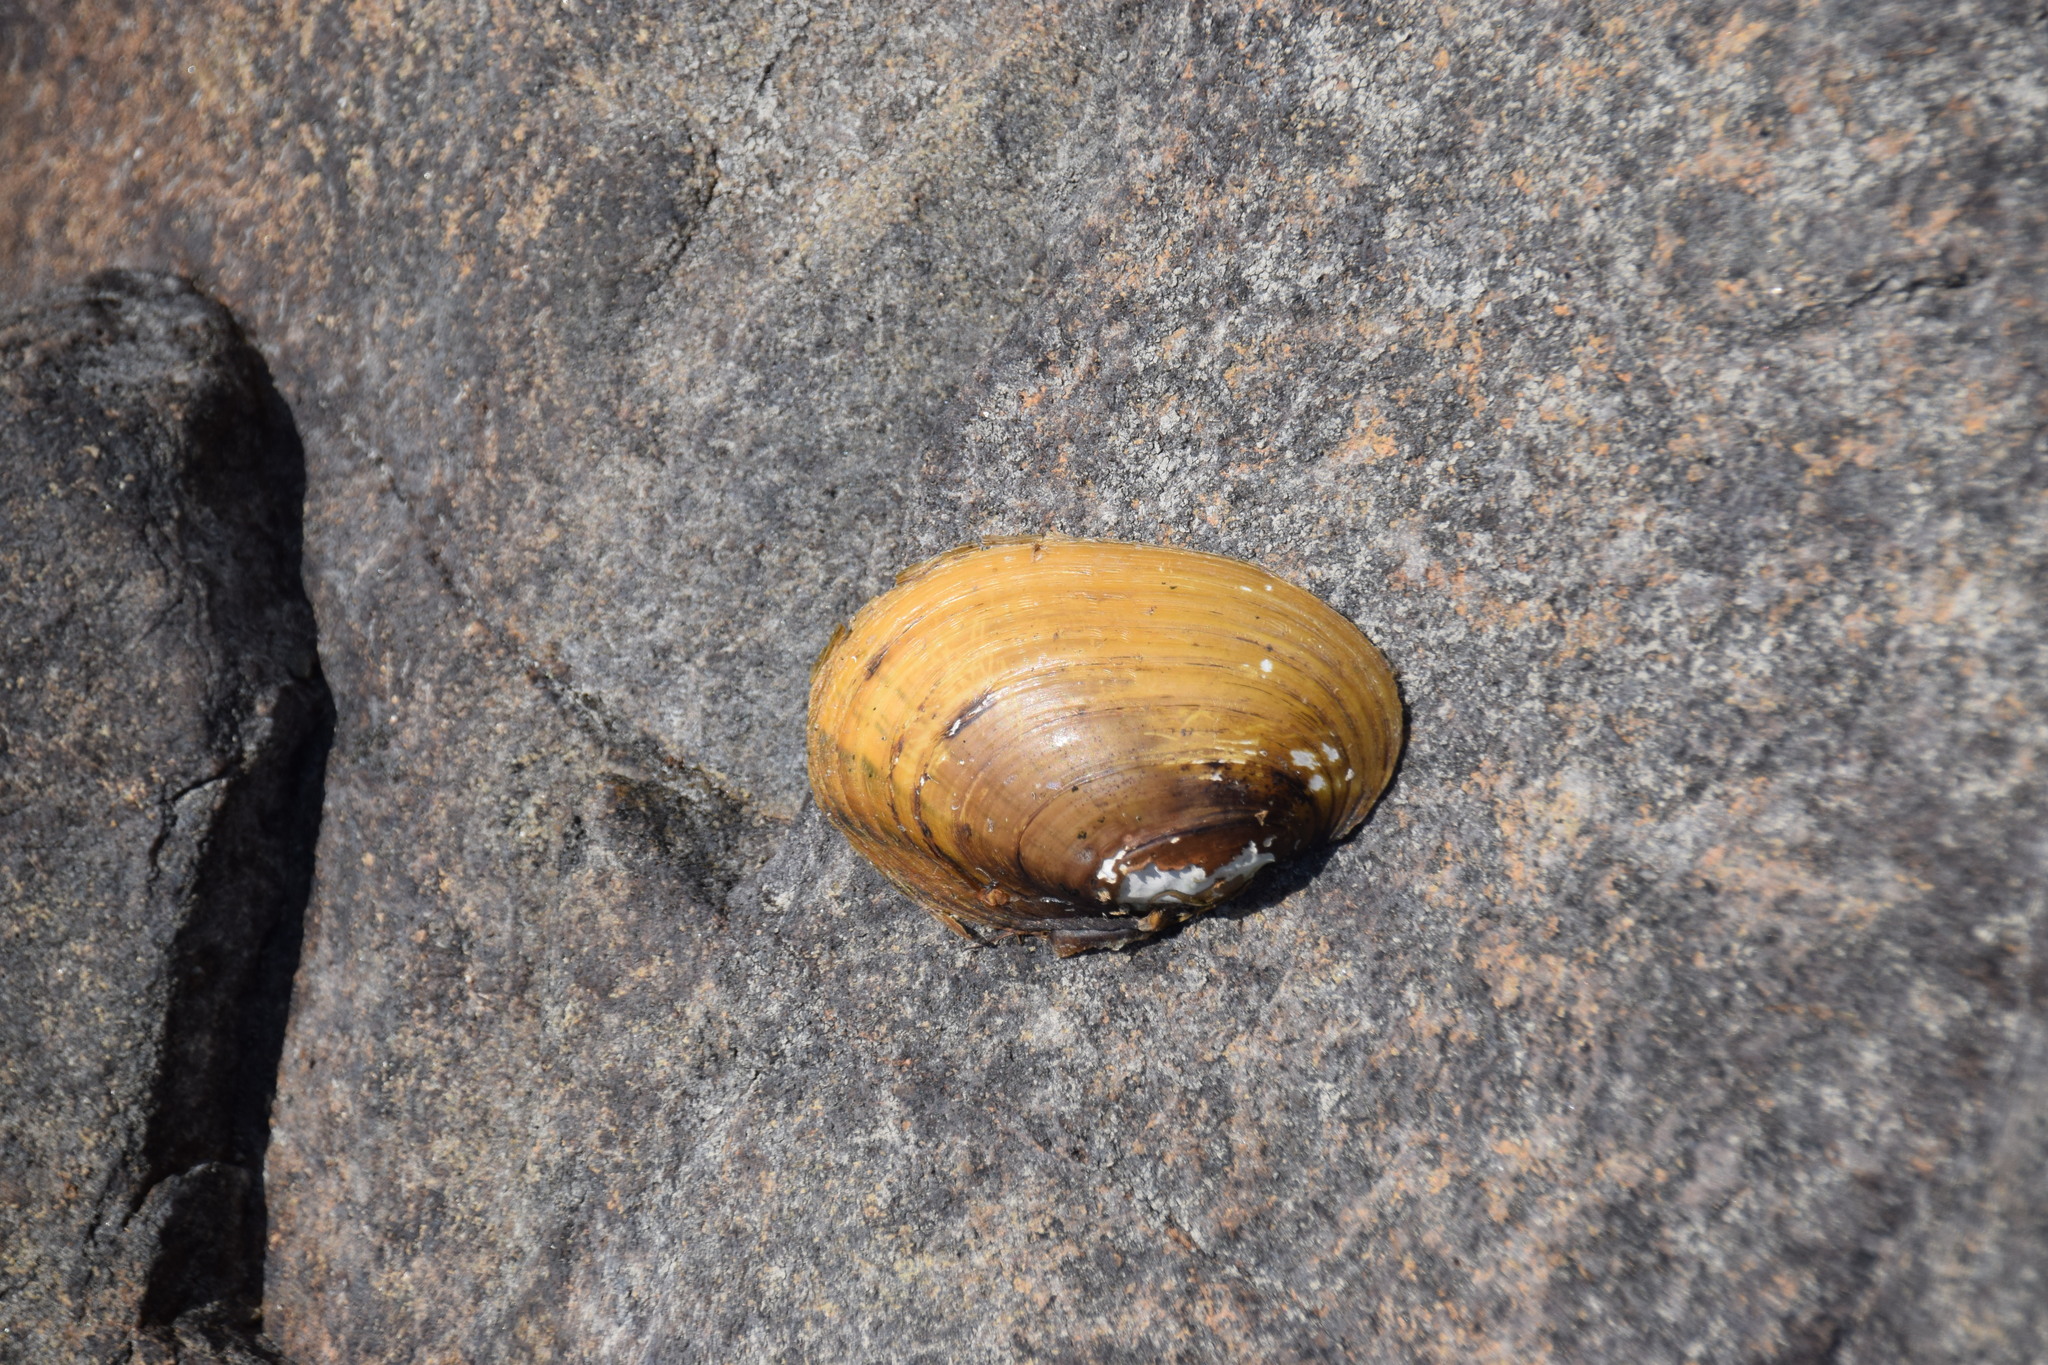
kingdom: Animalia
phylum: Mollusca
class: Bivalvia
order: Unionida
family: Unionidae
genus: Lampsilis
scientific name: Lampsilis siliquoidea
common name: Fatmucket
